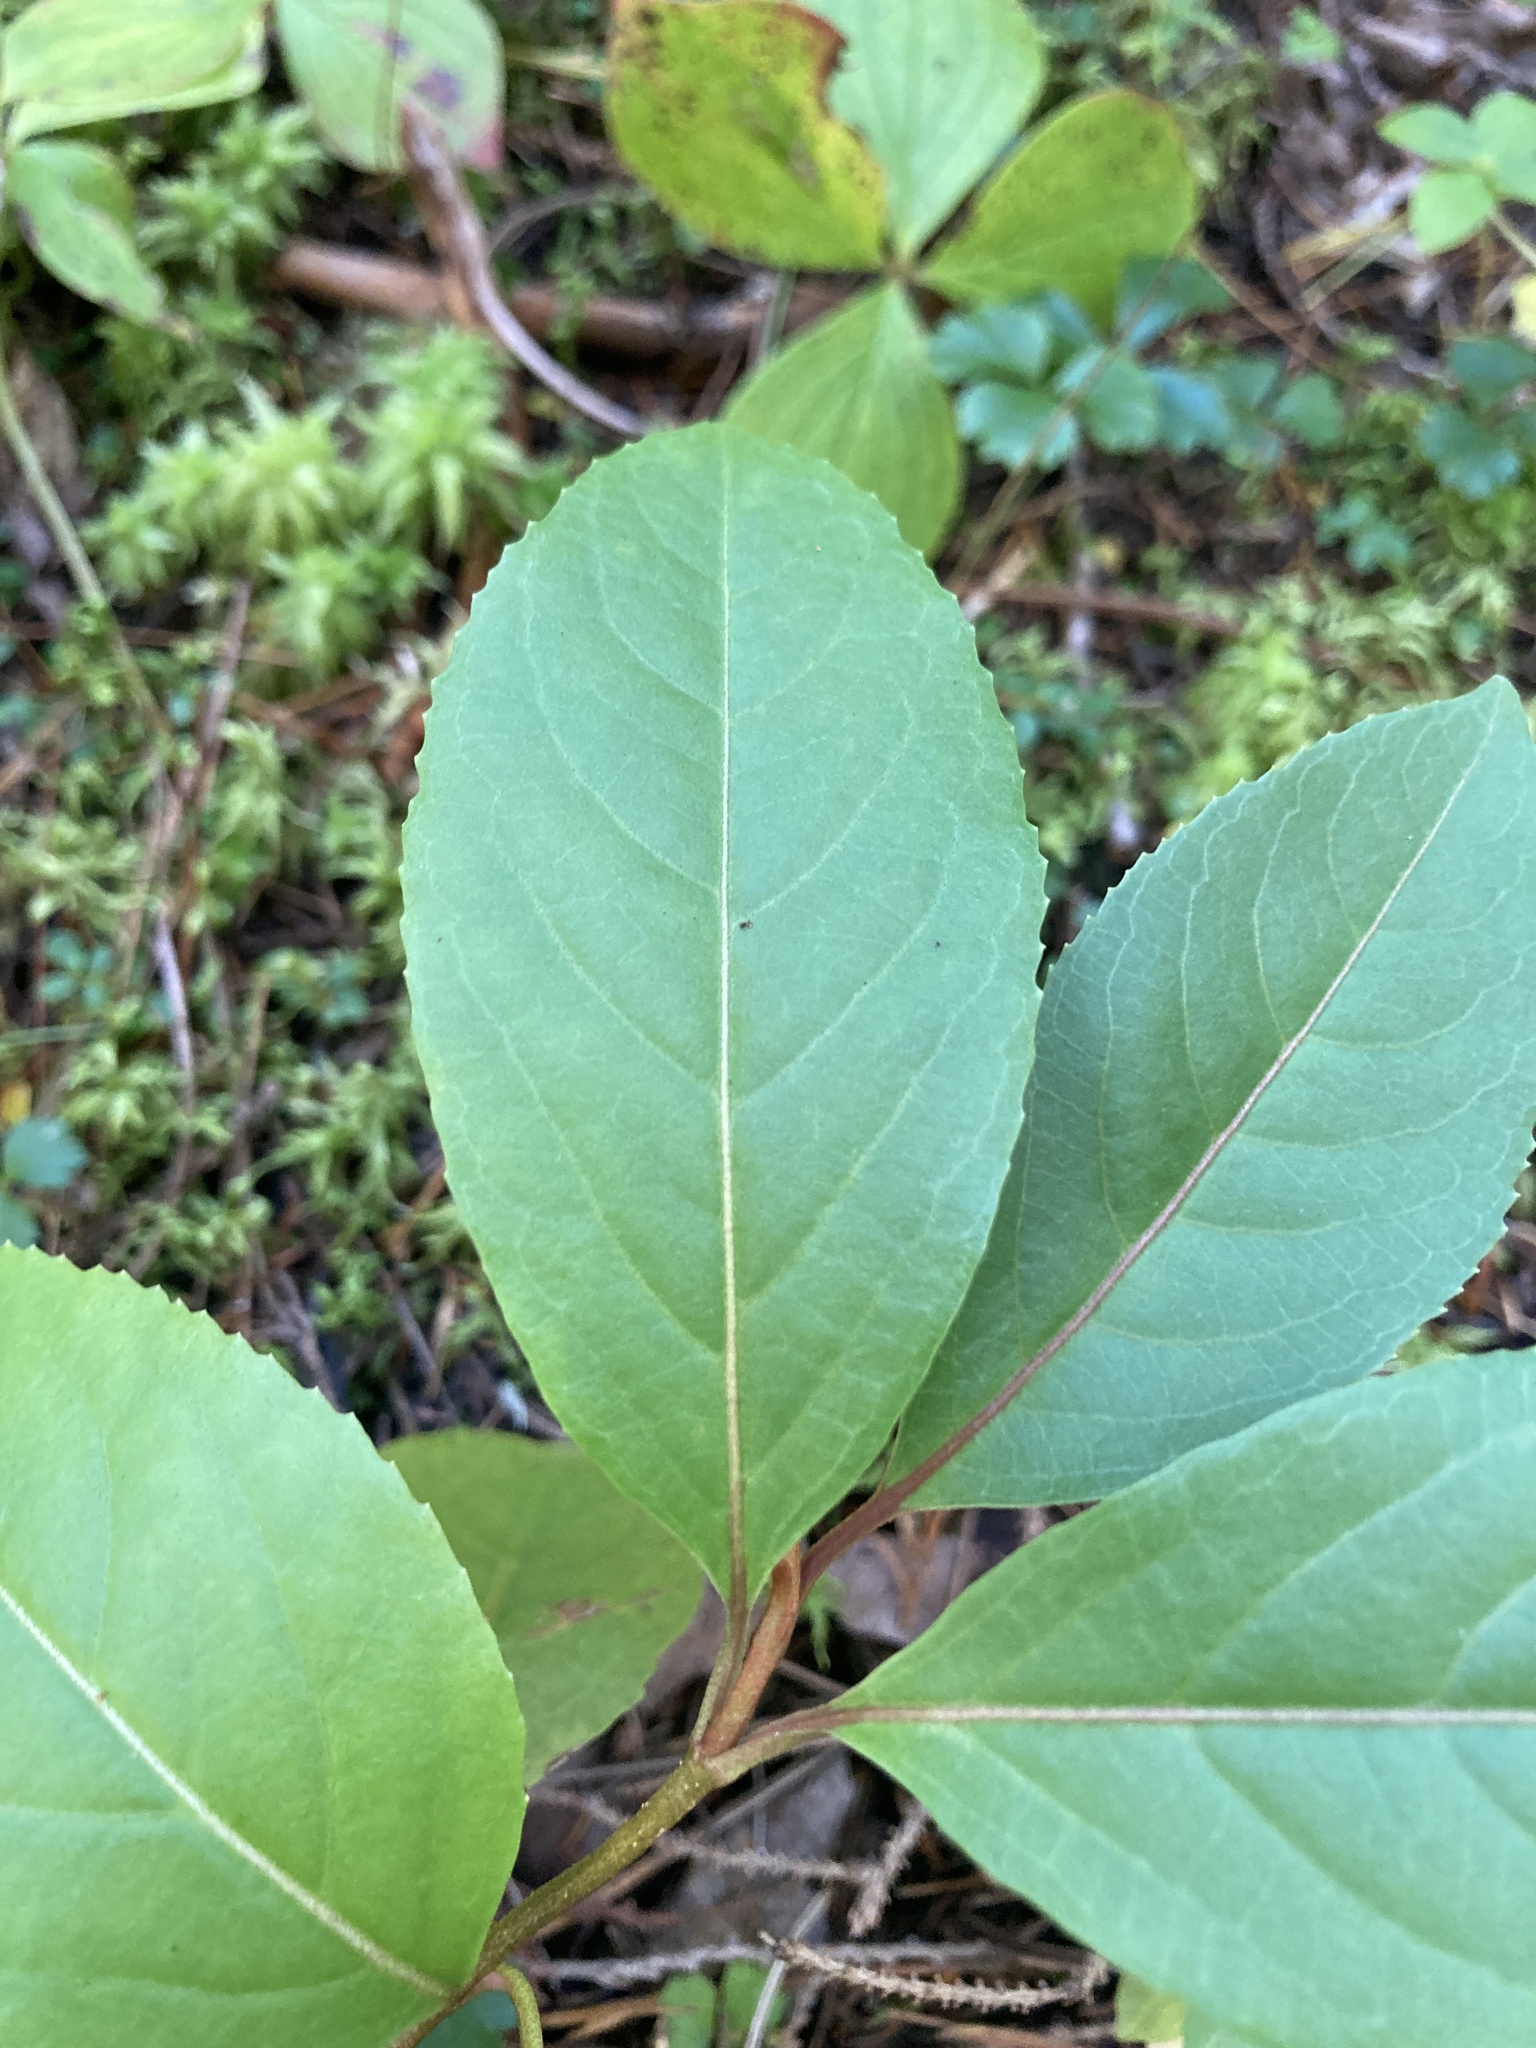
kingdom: Plantae
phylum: Tracheophyta
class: Magnoliopsida
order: Dipsacales
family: Viburnaceae
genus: Viburnum
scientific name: Viburnum cassinoides
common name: Swamp haw
